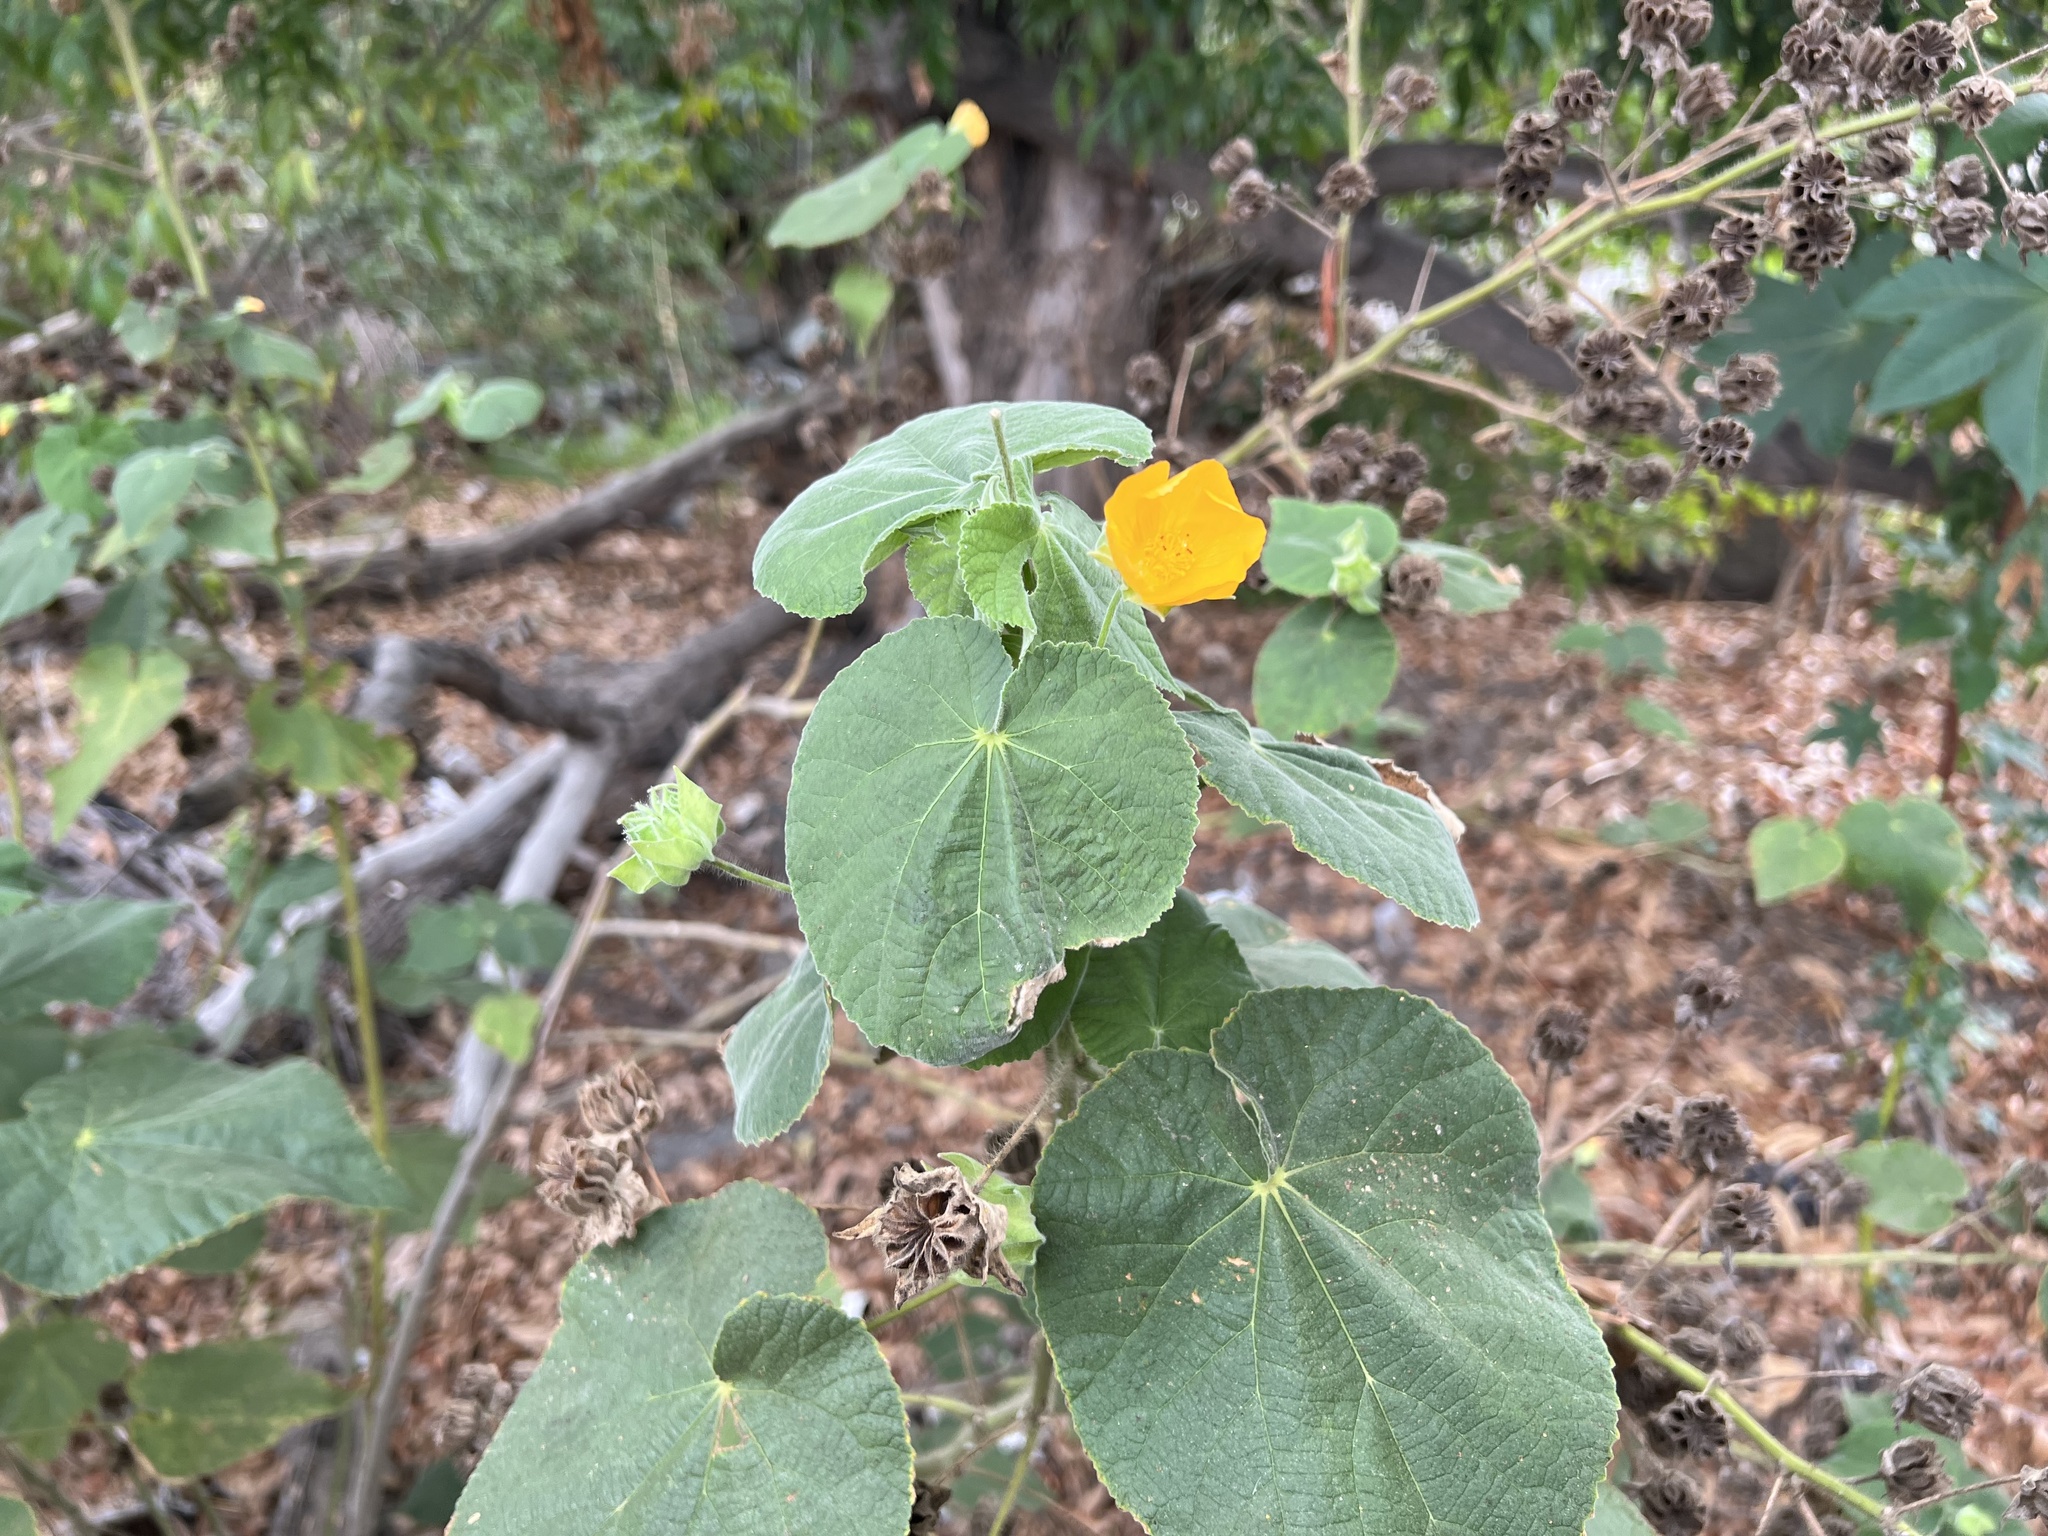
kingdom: Plantae
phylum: Tracheophyta
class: Magnoliopsida
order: Malvales
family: Malvaceae
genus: Abutilon
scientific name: Abutilon grandifolium
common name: Hairy abutilon
